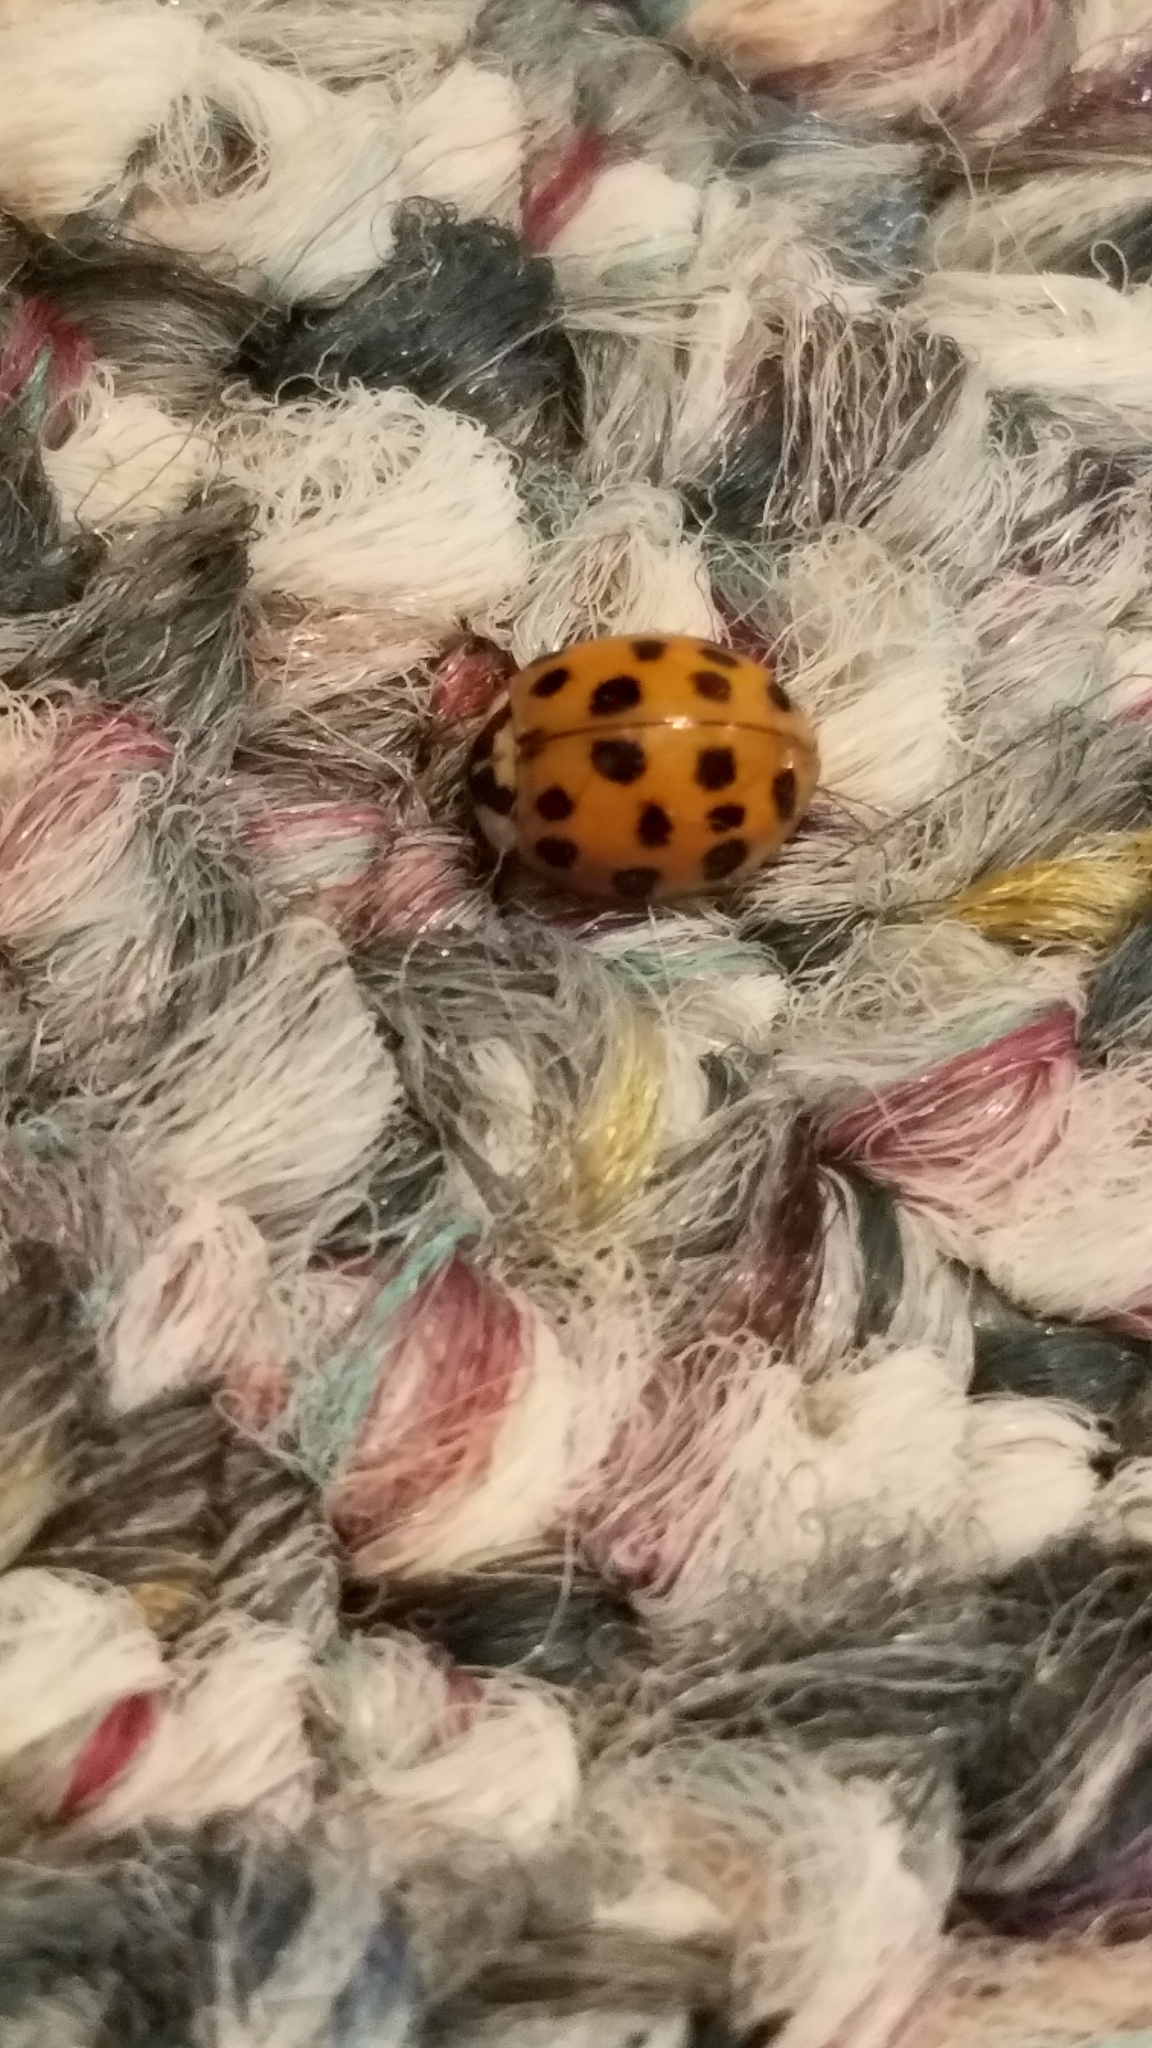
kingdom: Animalia
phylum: Arthropoda
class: Insecta
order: Coleoptera
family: Coccinellidae
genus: Harmonia
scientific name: Harmonia axyridis
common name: Harlequin ladybird
